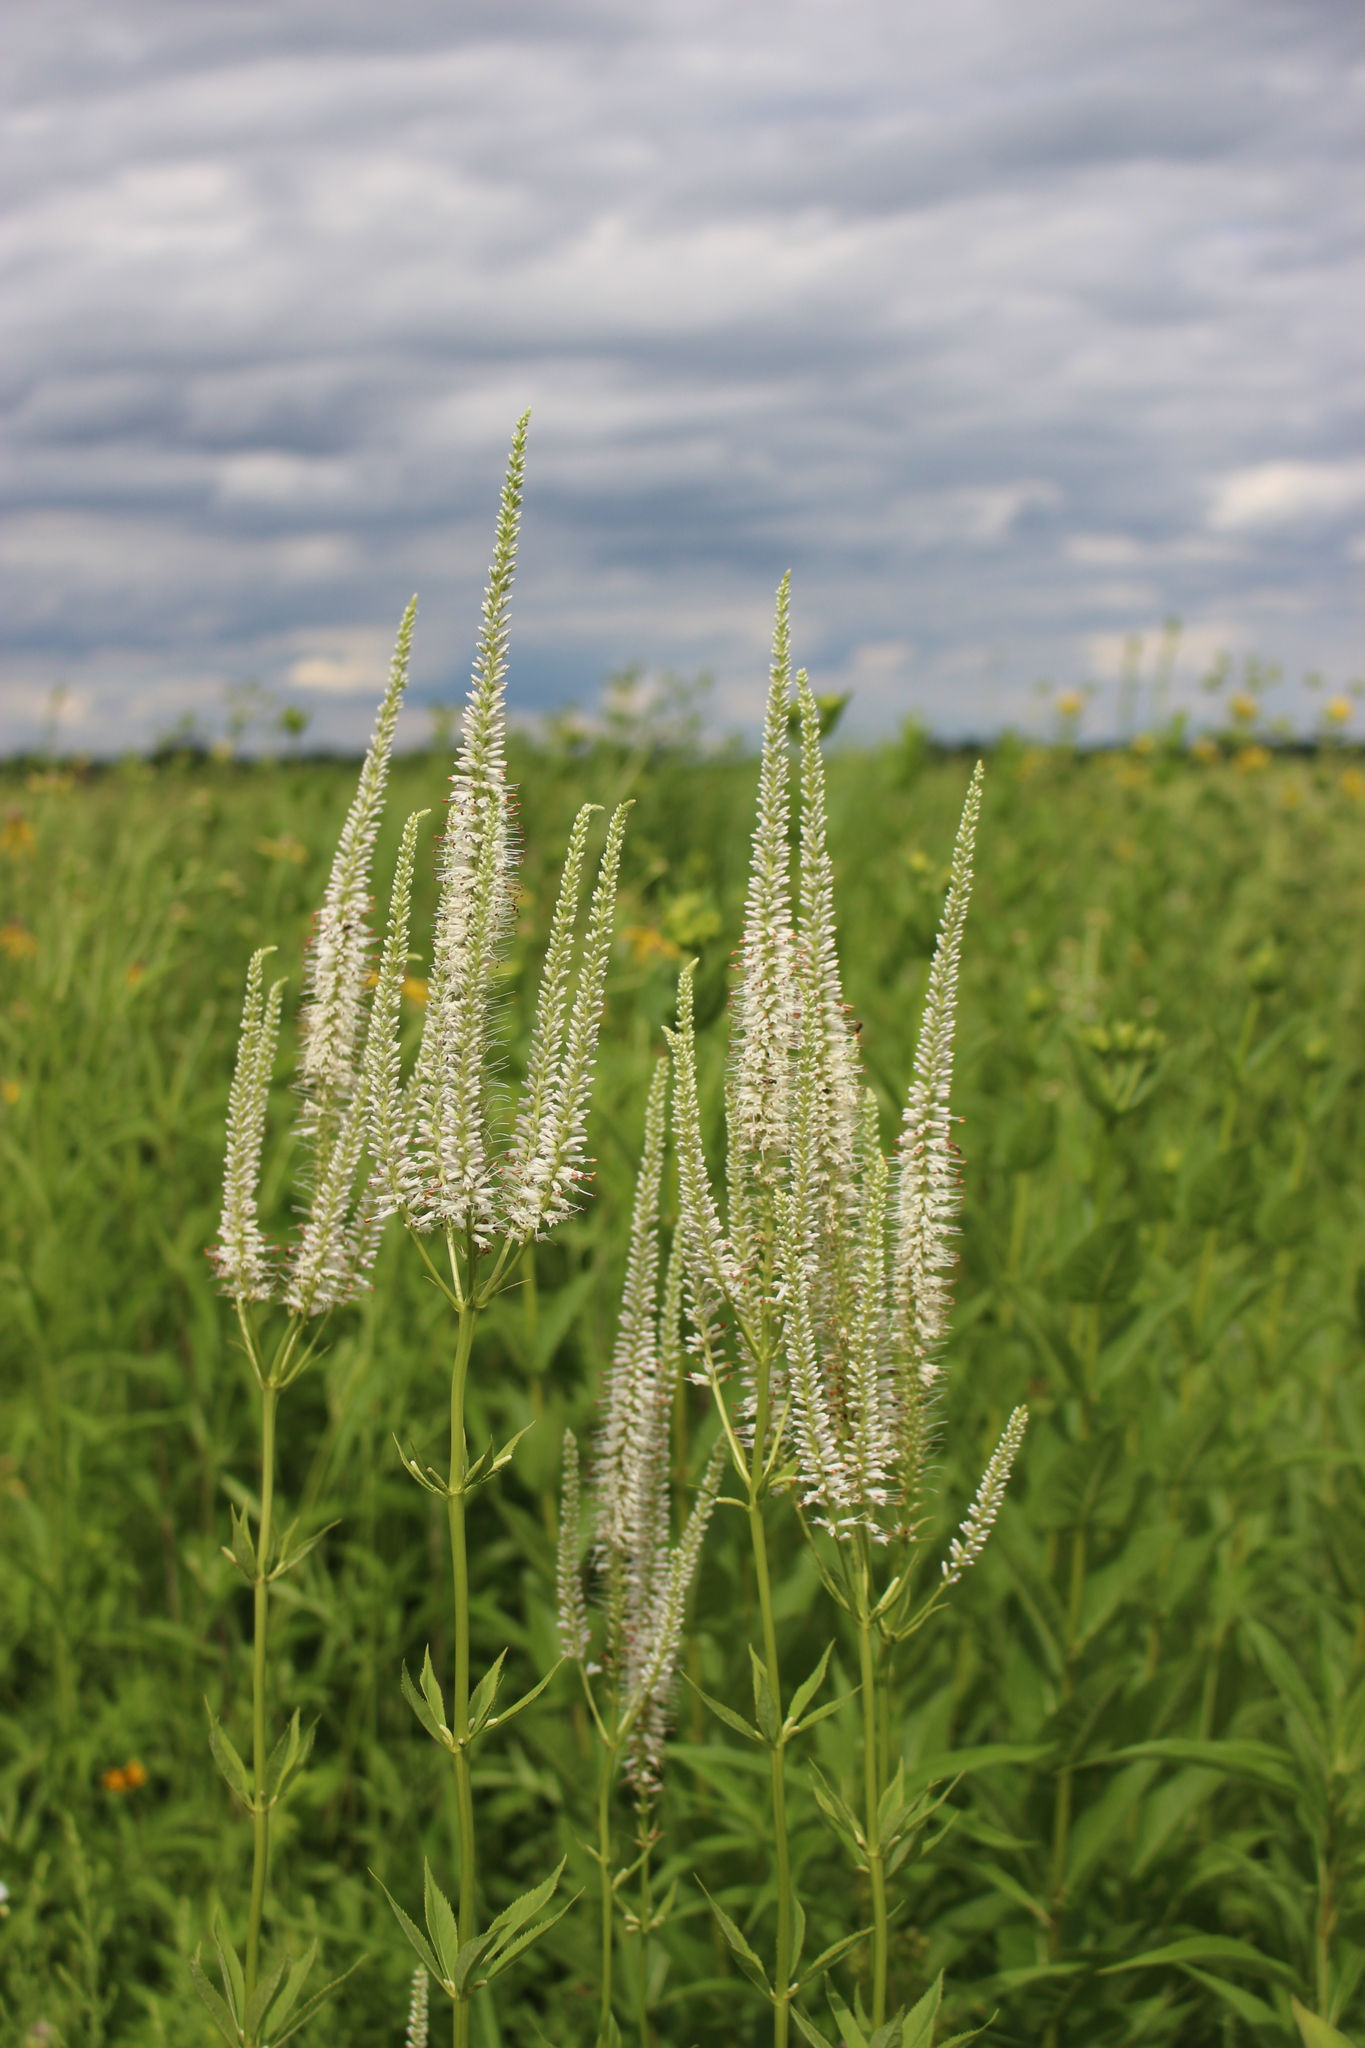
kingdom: Plantae
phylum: Tracheophyta
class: Magnoliopsida
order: Lamiales
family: Plantaginaceae
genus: Veronicastrum
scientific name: Veronicastrum virginicum
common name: Blackroot
